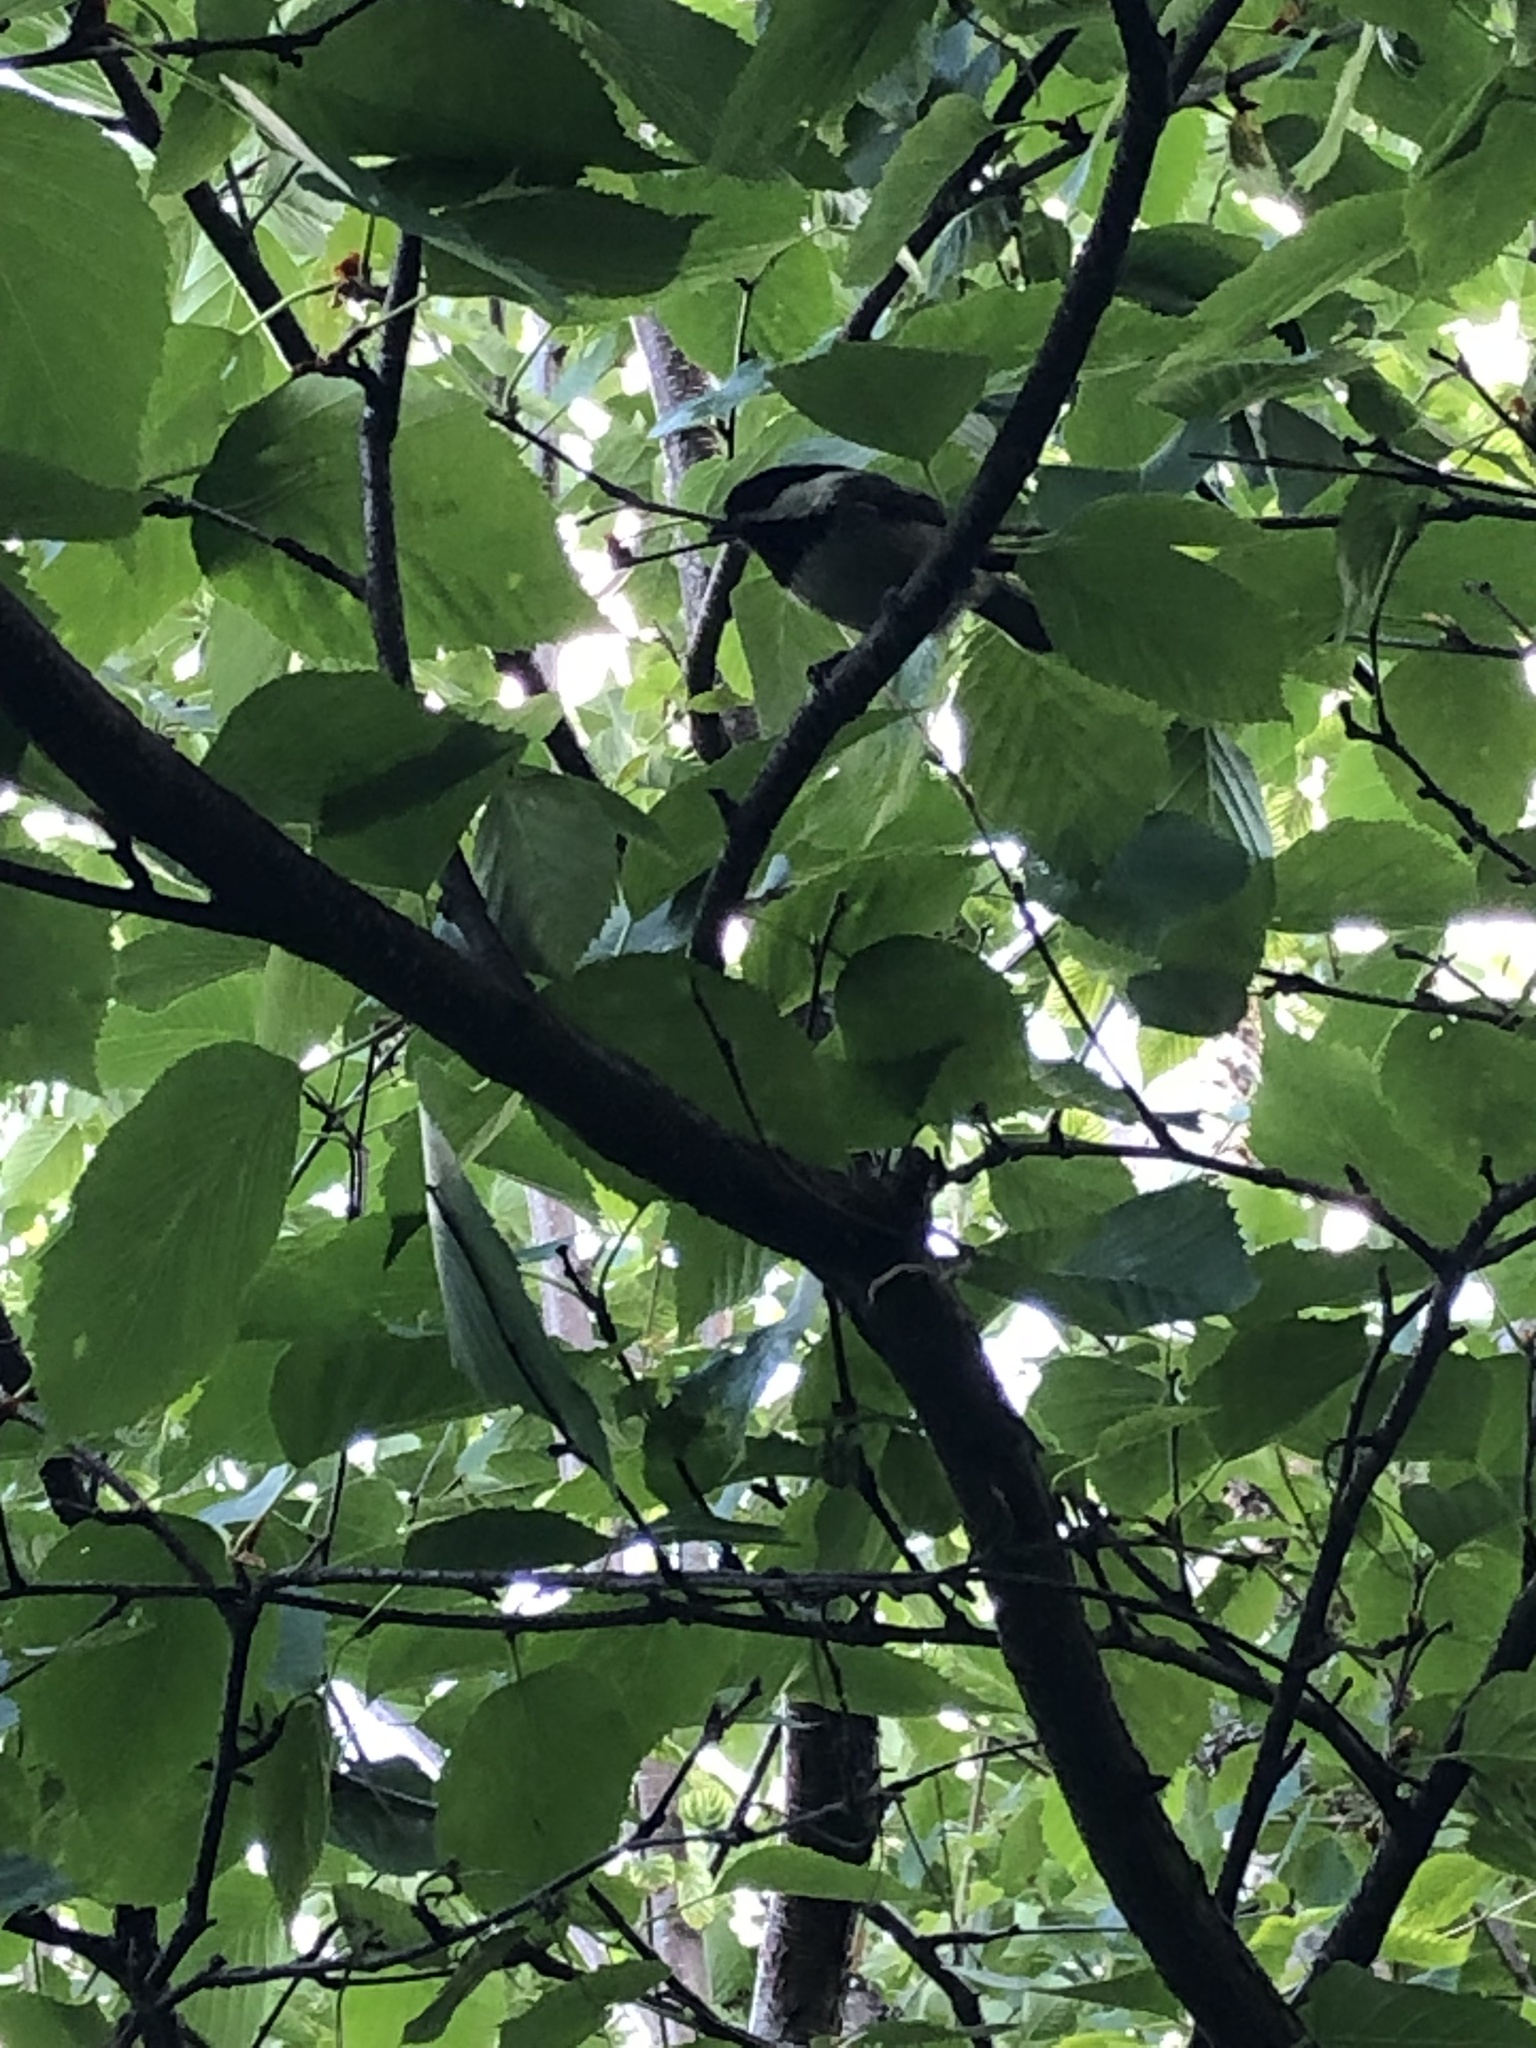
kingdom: Animalia
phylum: Chordata
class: Aves
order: Passeriformes
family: Paridae
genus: Poecile
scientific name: Poecile atricapillus
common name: Black-capped chickadee
